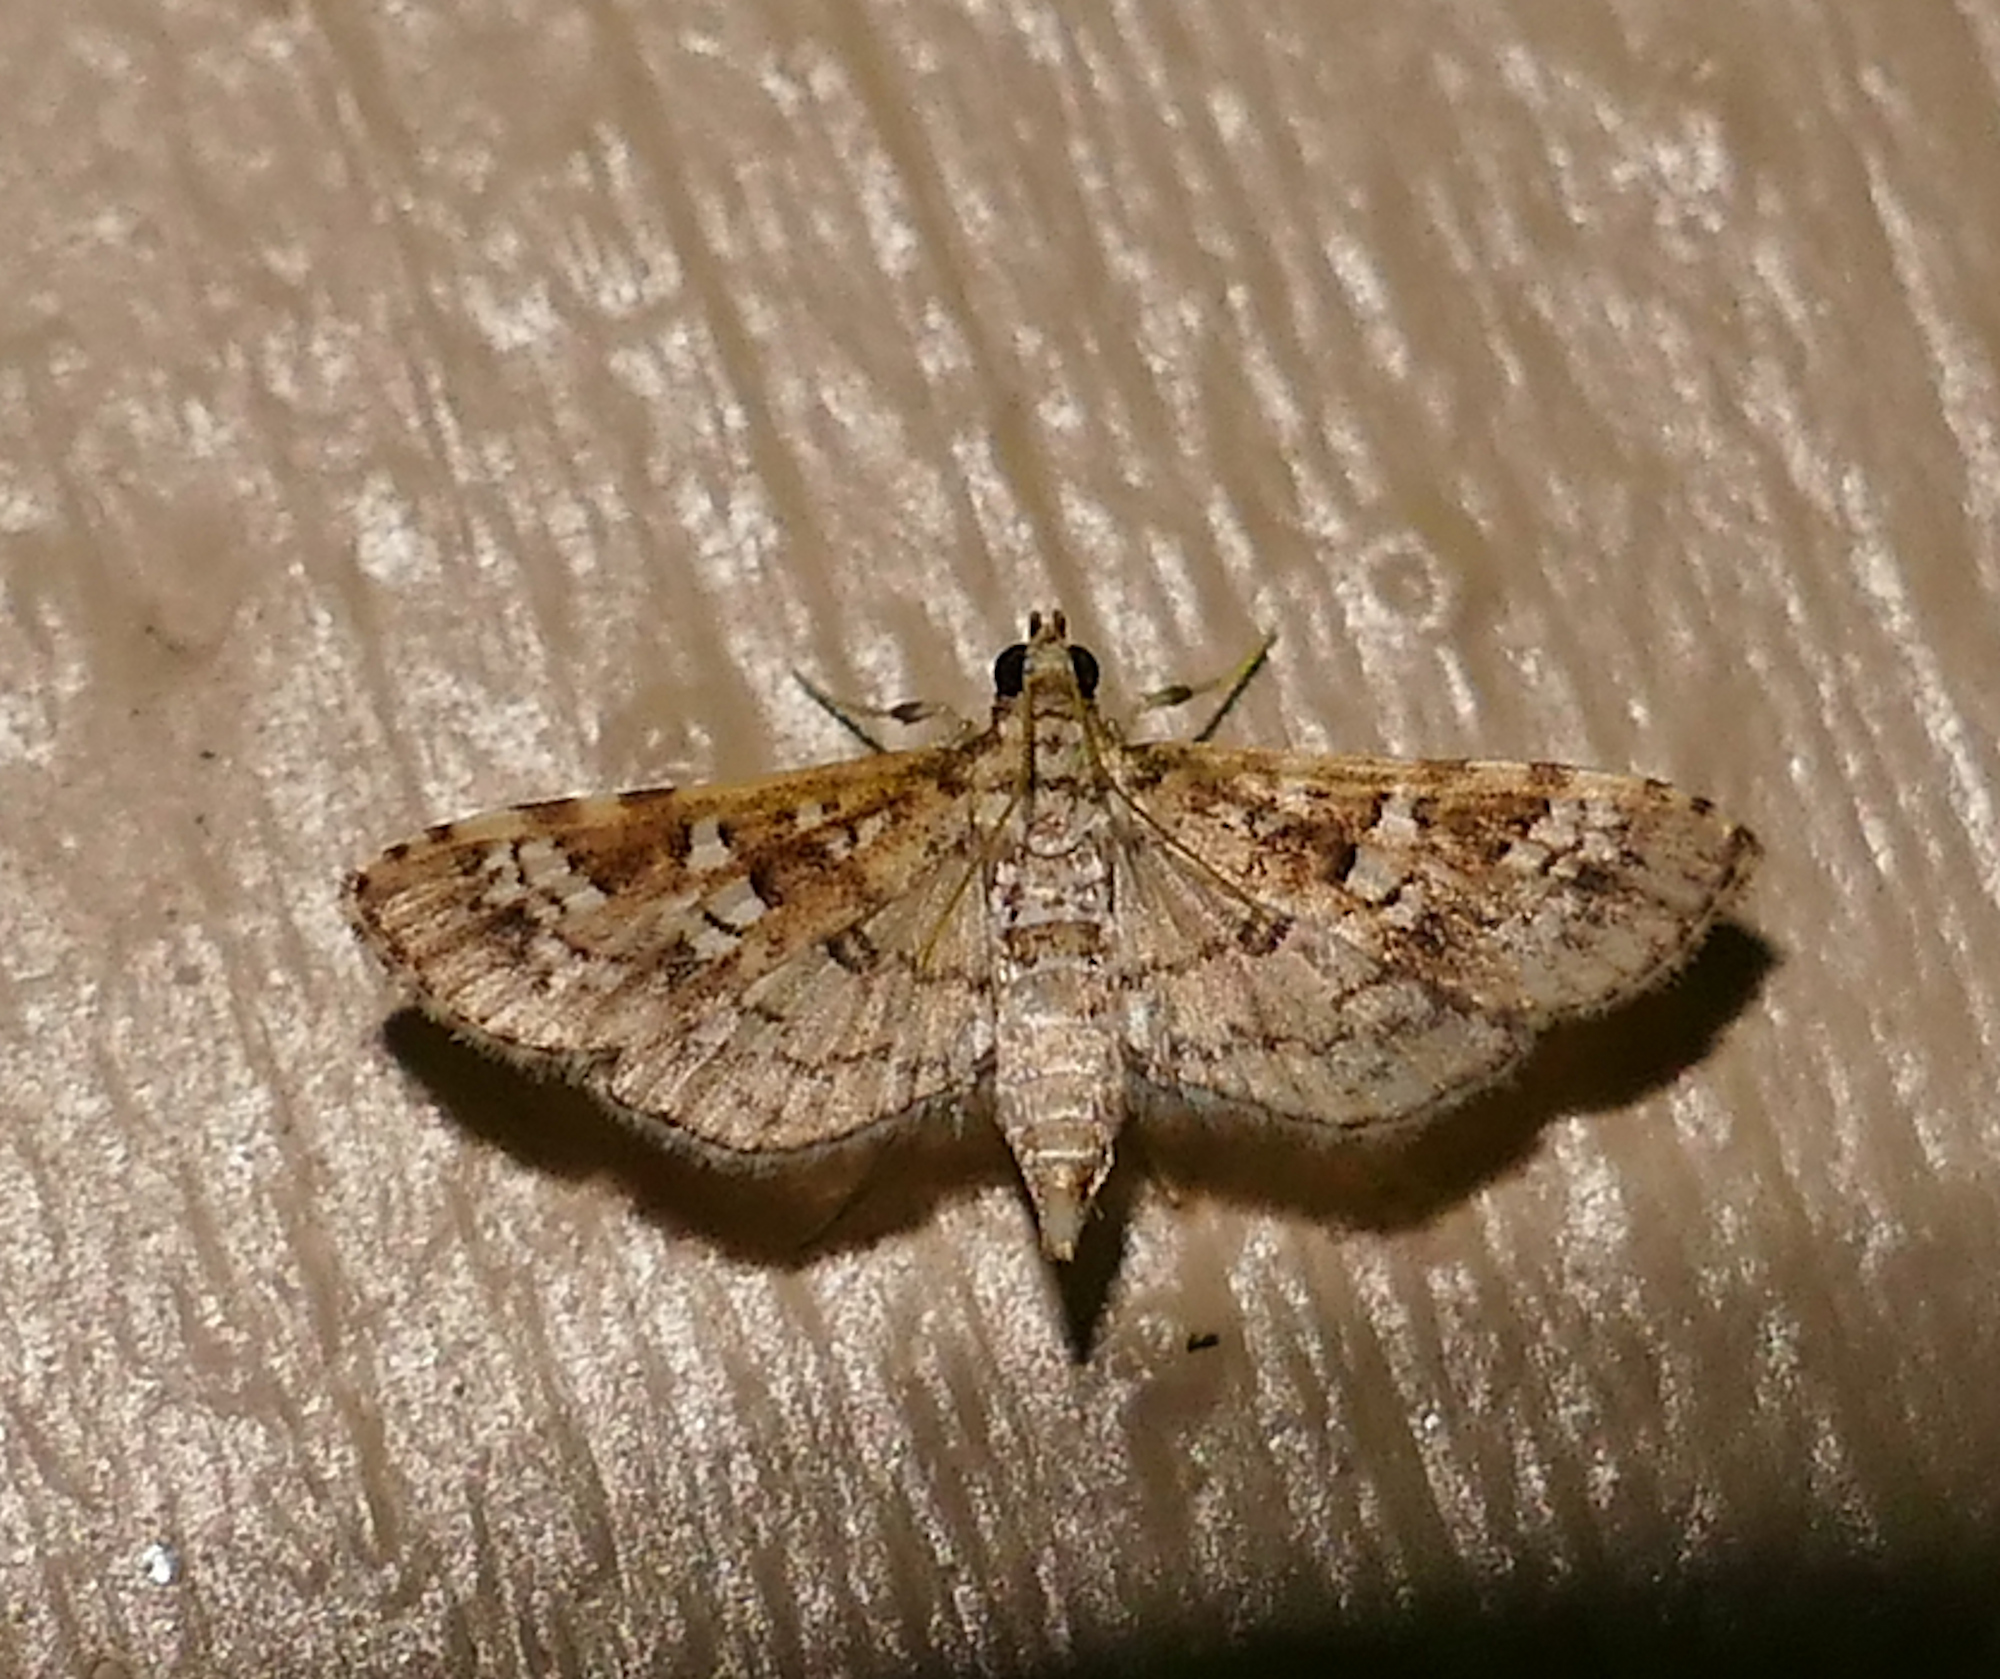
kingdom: Animalia
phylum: Arthropoda
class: Insecta
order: Lepidoptera
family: Crambidae
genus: Samea
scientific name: Samea multiplicalis
